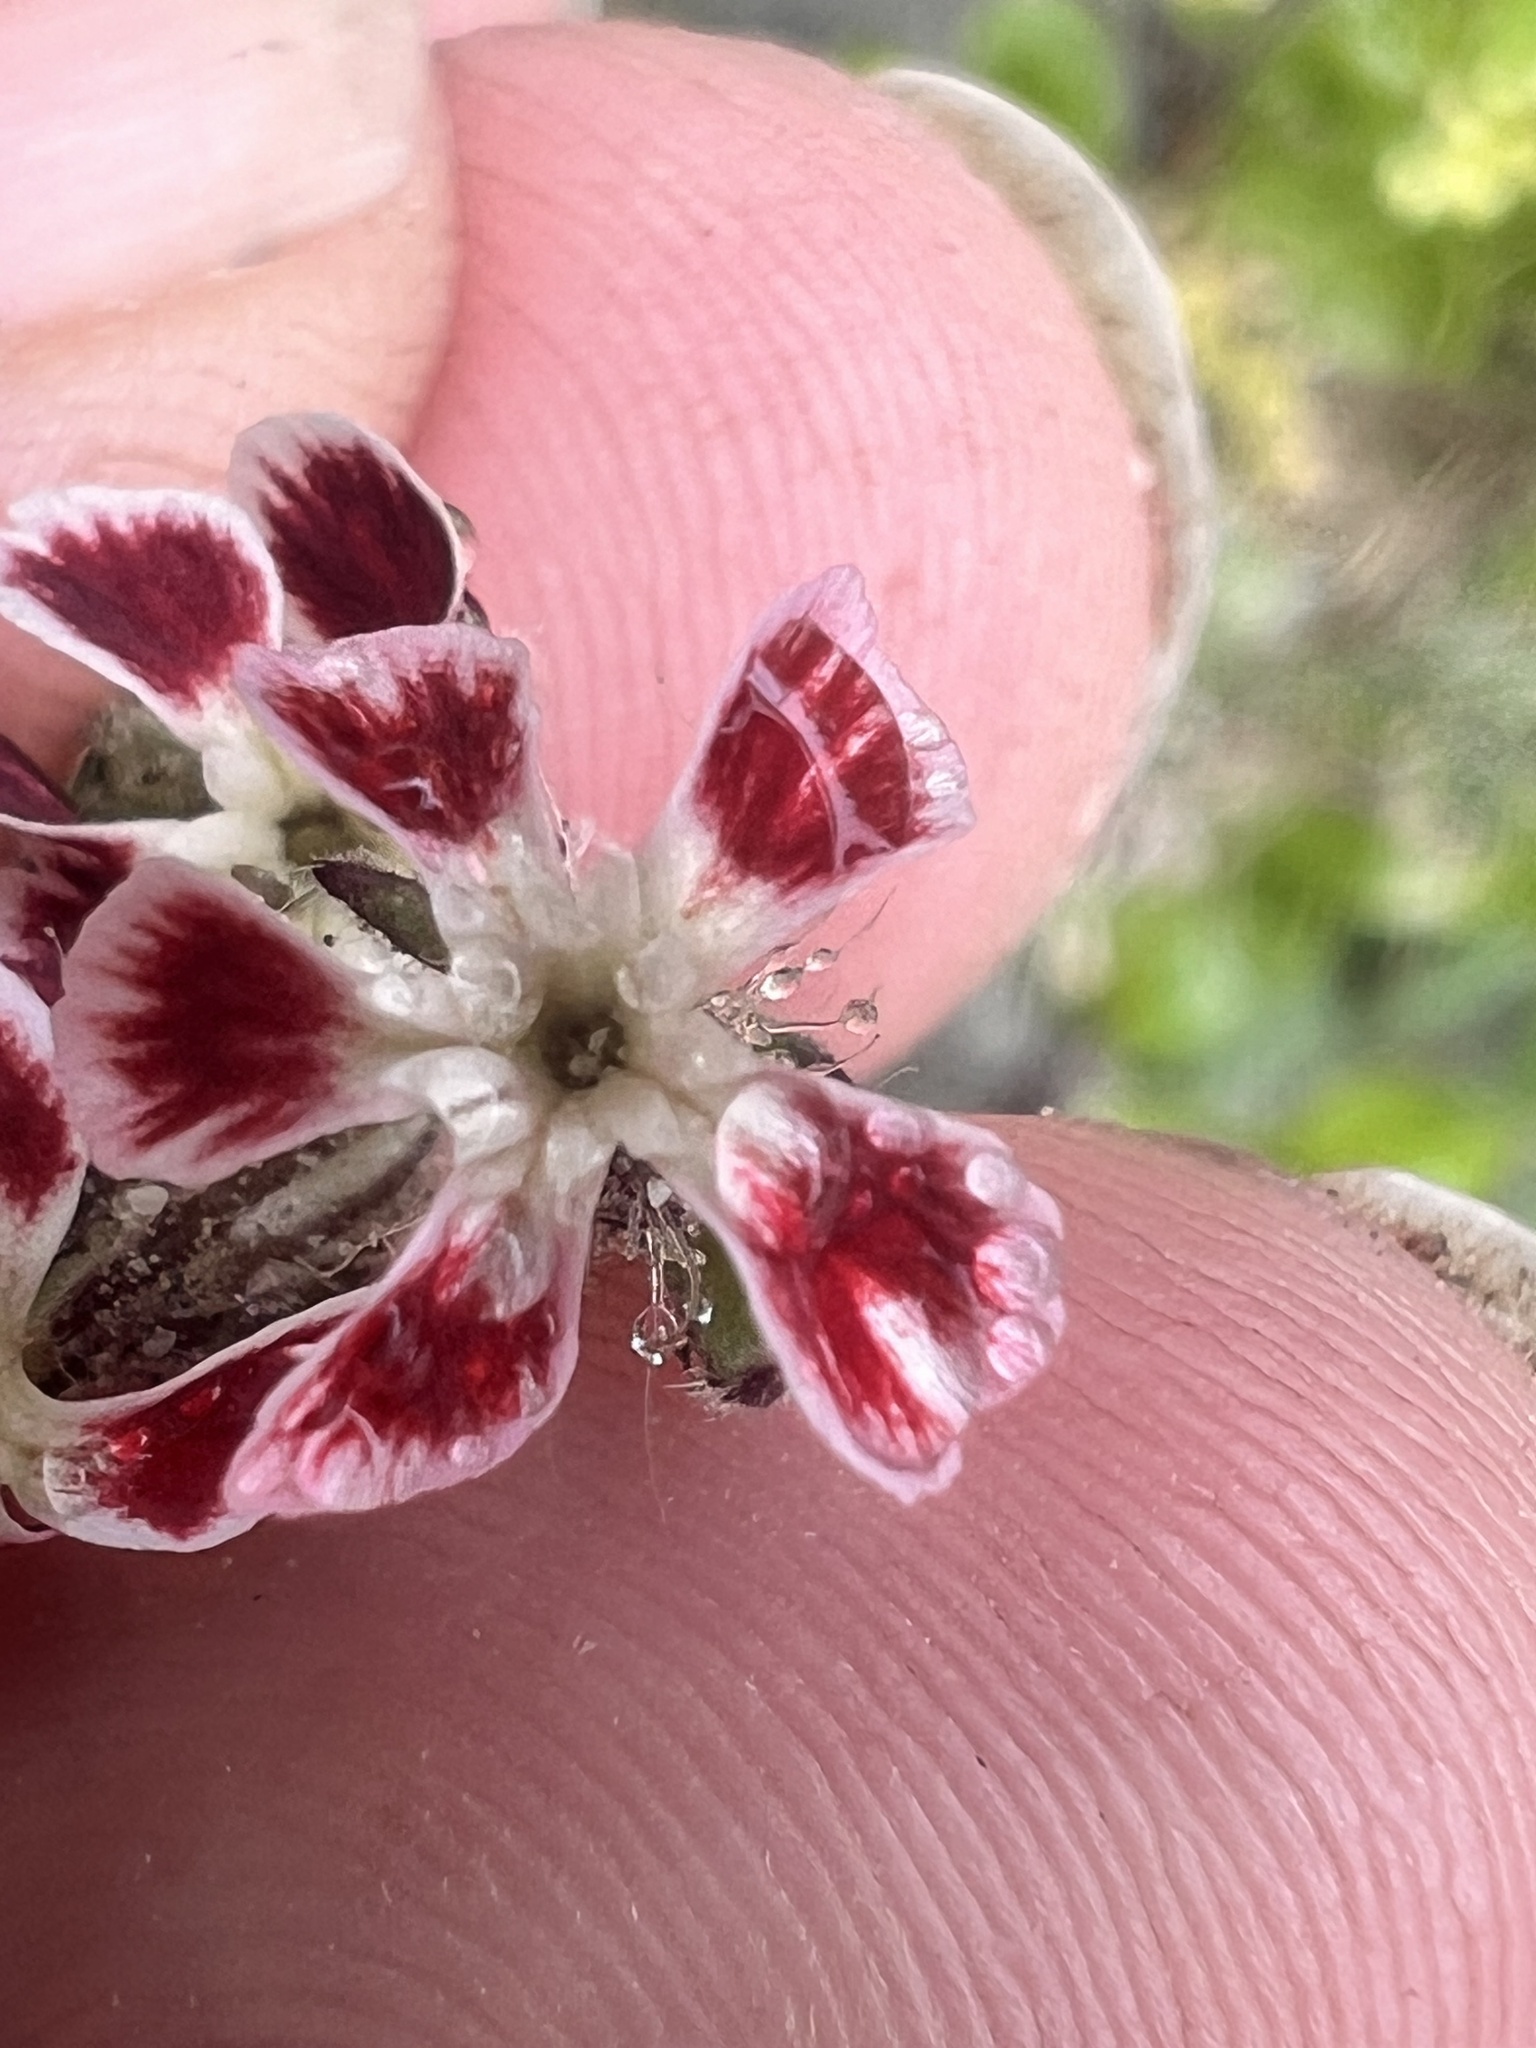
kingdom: Plantae
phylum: Tracheophyta
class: Magnoliopsida
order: Caryophyllales
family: Caryophyllaceae
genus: Silene
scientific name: Silene gallica
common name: Small-flowered catchfly
